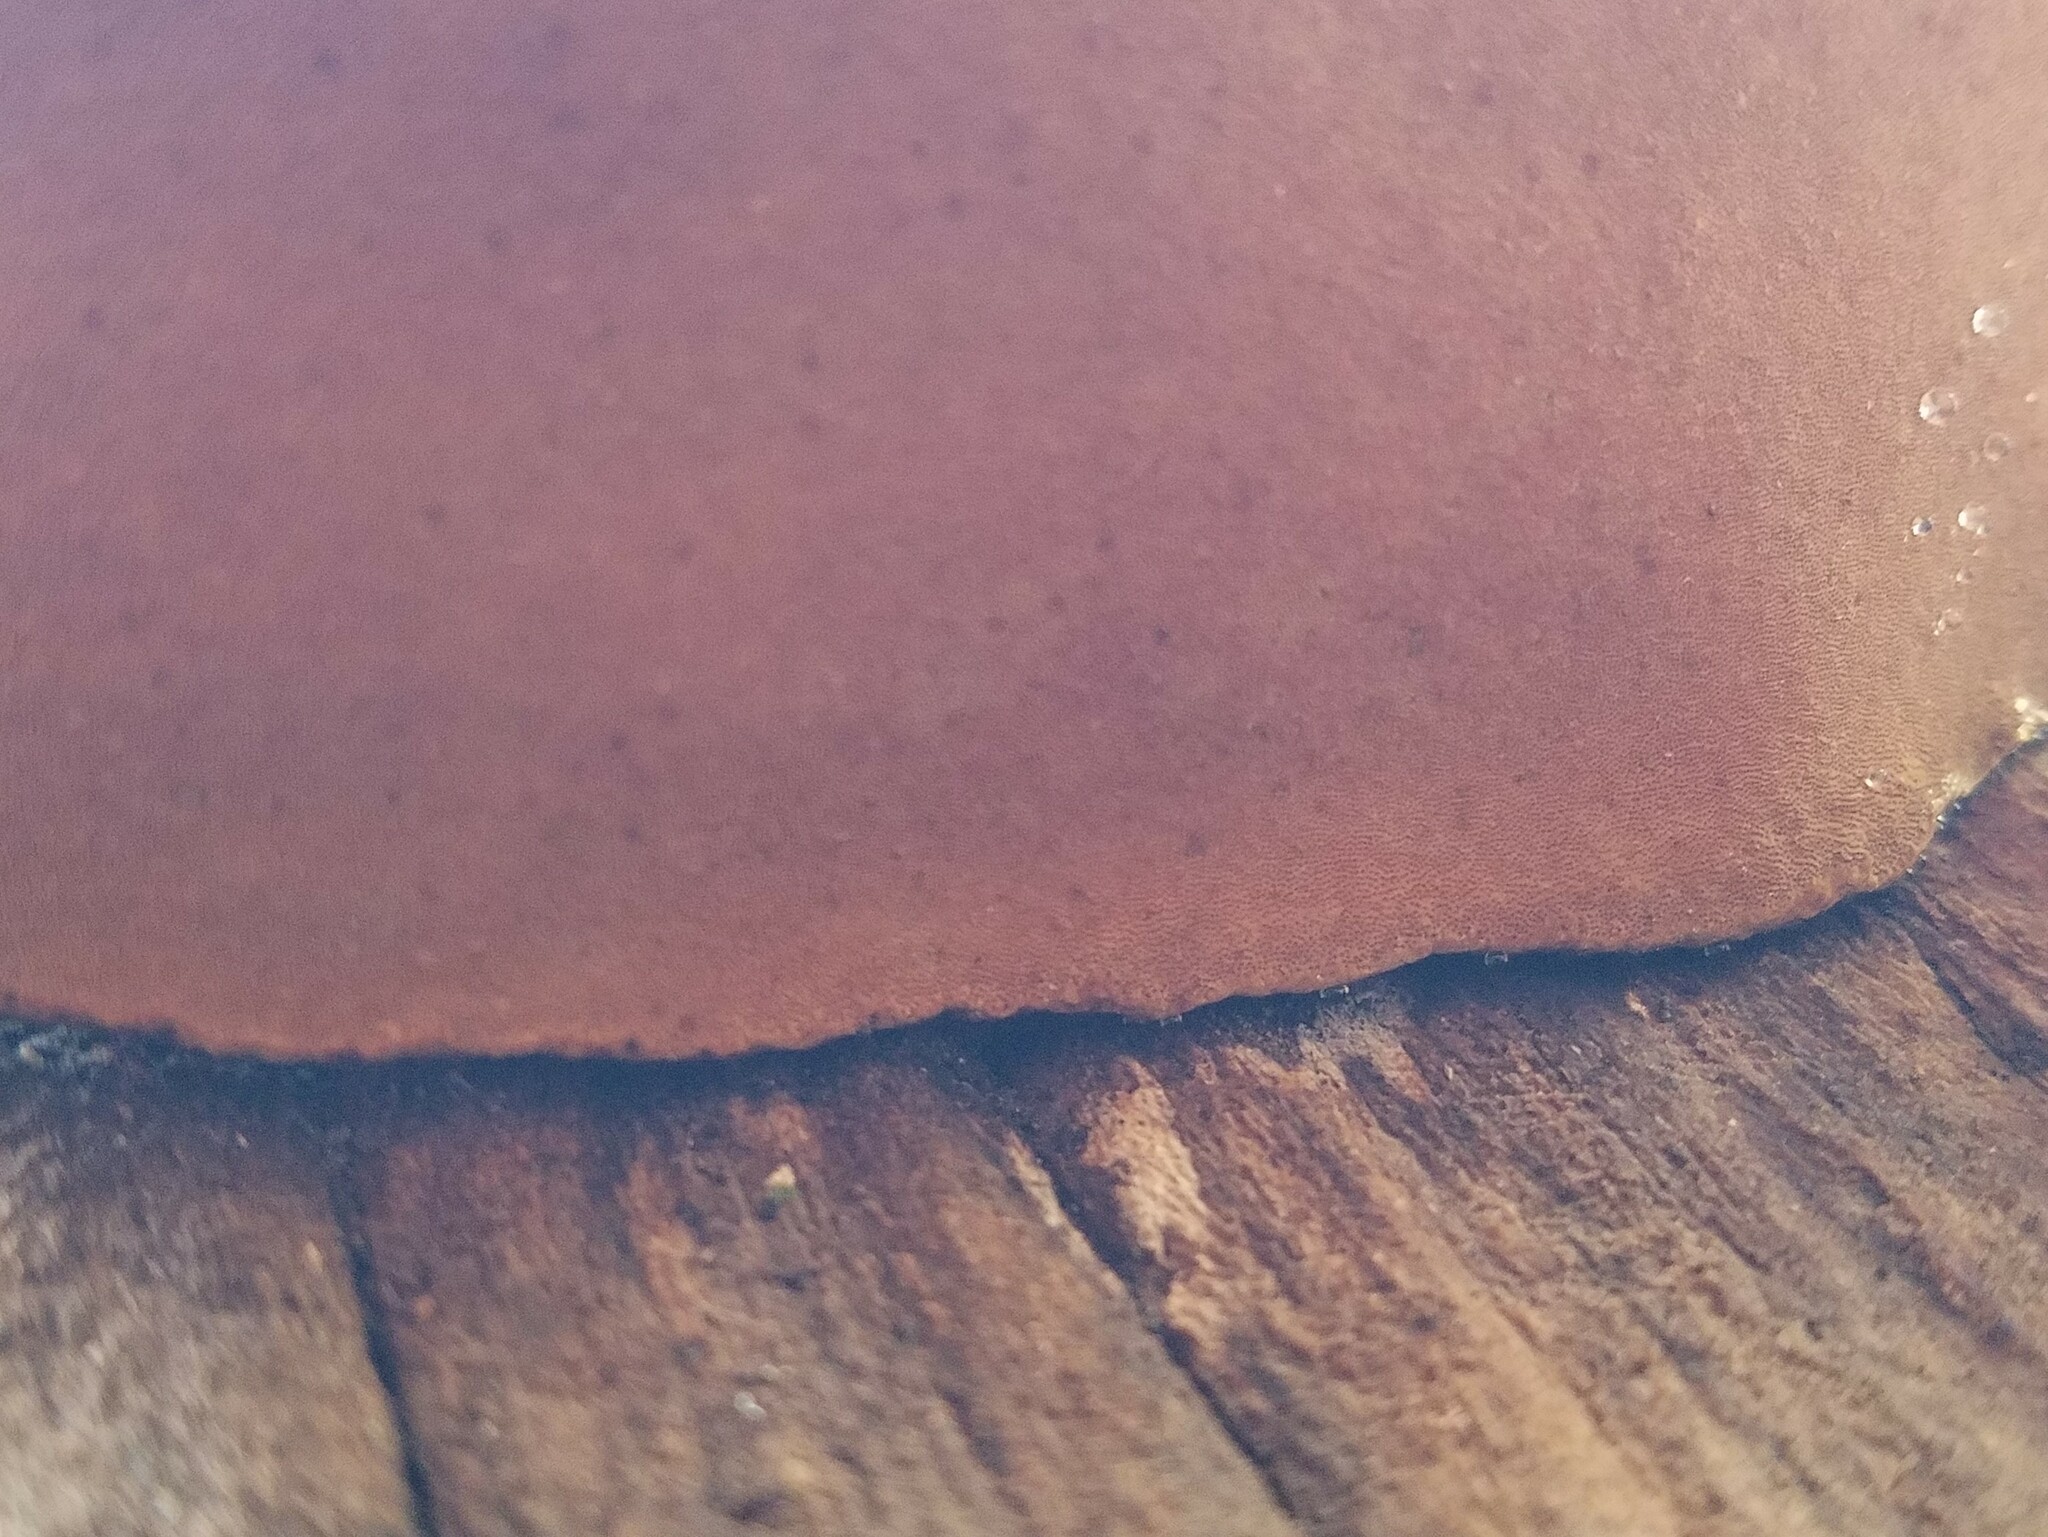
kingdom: Fungi
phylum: Basidiomycota
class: Agaricomycetes
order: Hymenochaetales
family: Hymenochaetaceae
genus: Phellinus
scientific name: Phellinus robiniae
